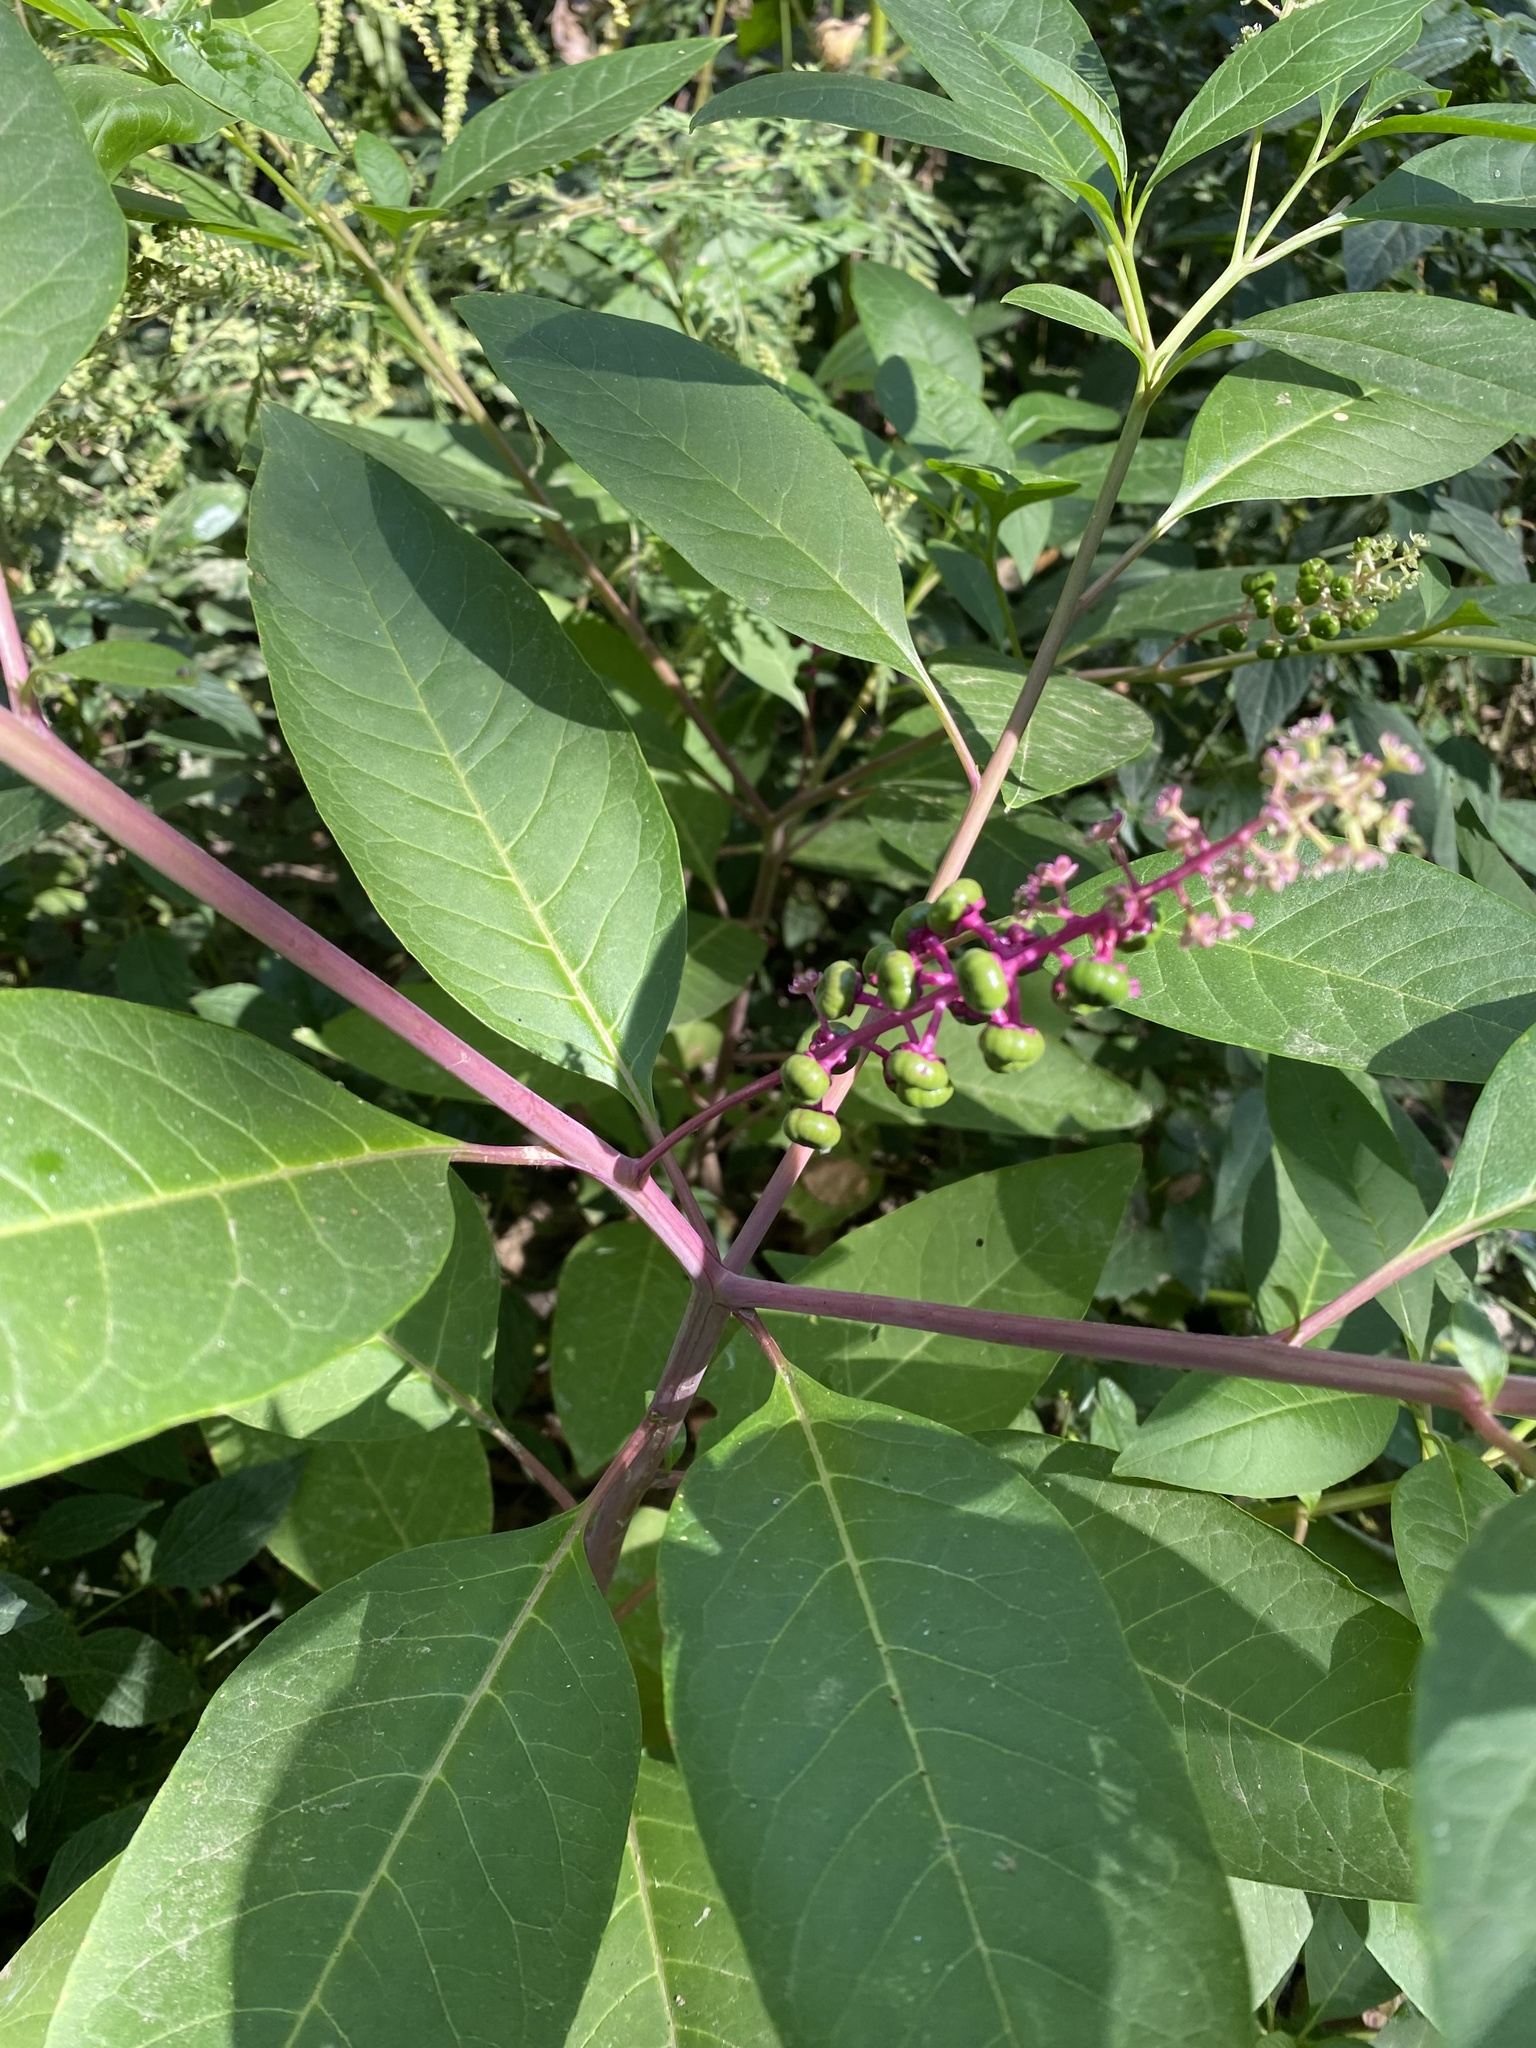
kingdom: Plantae
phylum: Tracheophyta
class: Magnoliopsida
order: Caryophyllales
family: Phytolaccaceae
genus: Phytolacca
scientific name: Phytolacca americana
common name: American pokeweed
